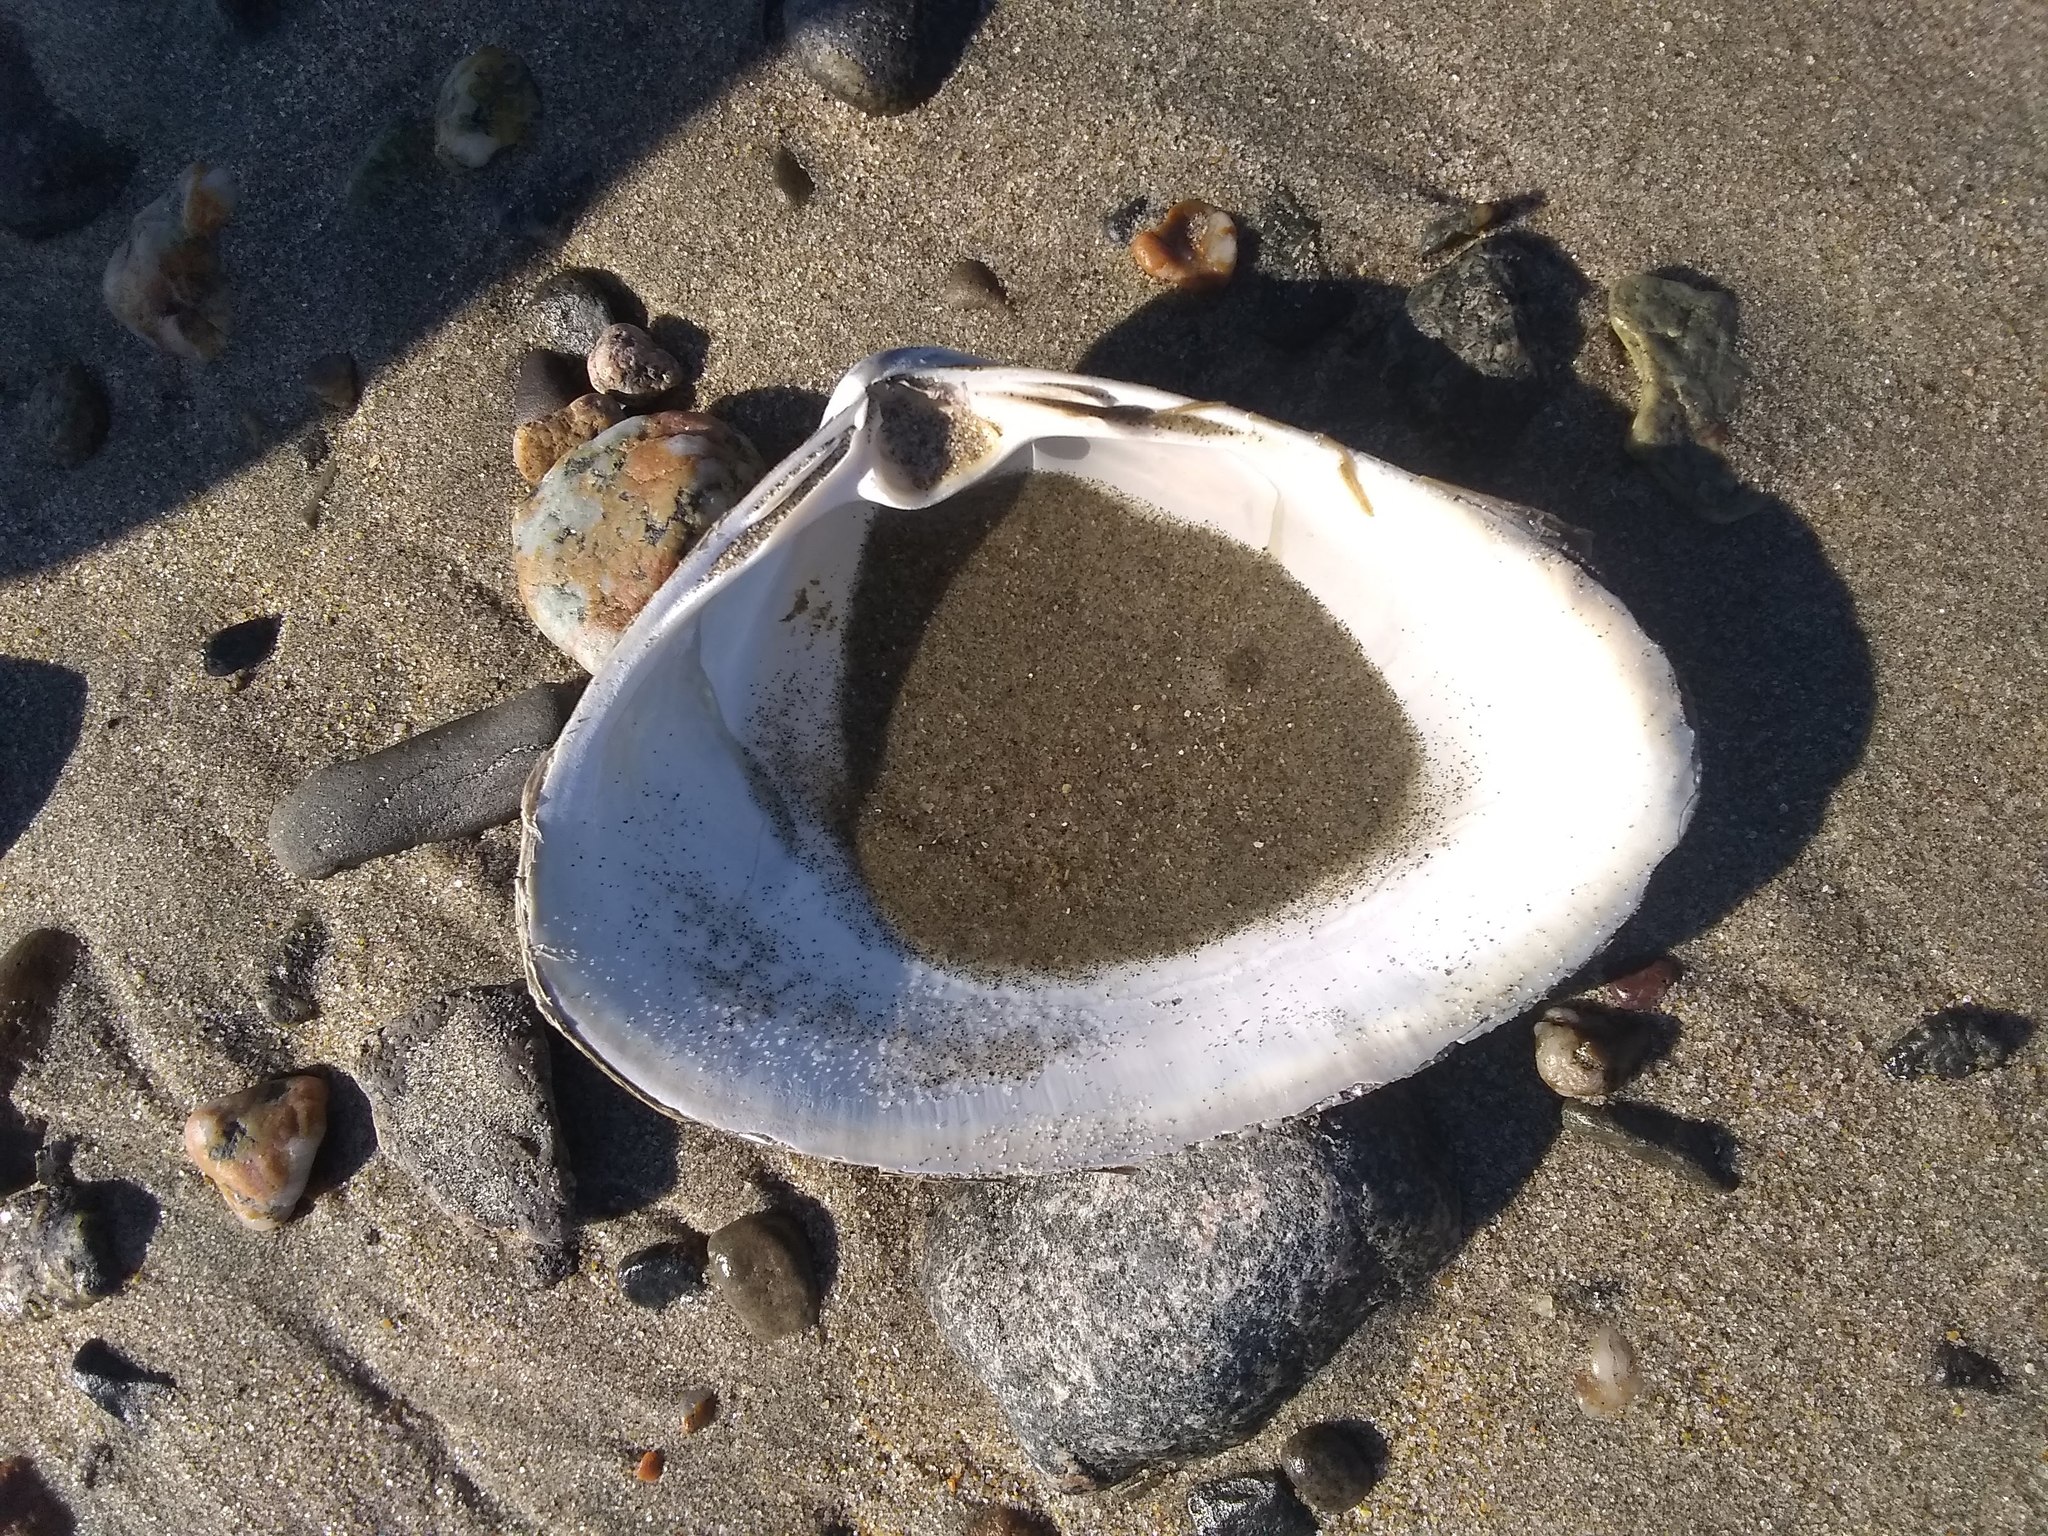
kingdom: Animalia
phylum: Mollusca
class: Bivalvia
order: Venerida
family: Mactridae
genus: Spisula
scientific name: Spisula solidissima
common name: Atlantic surf clam
